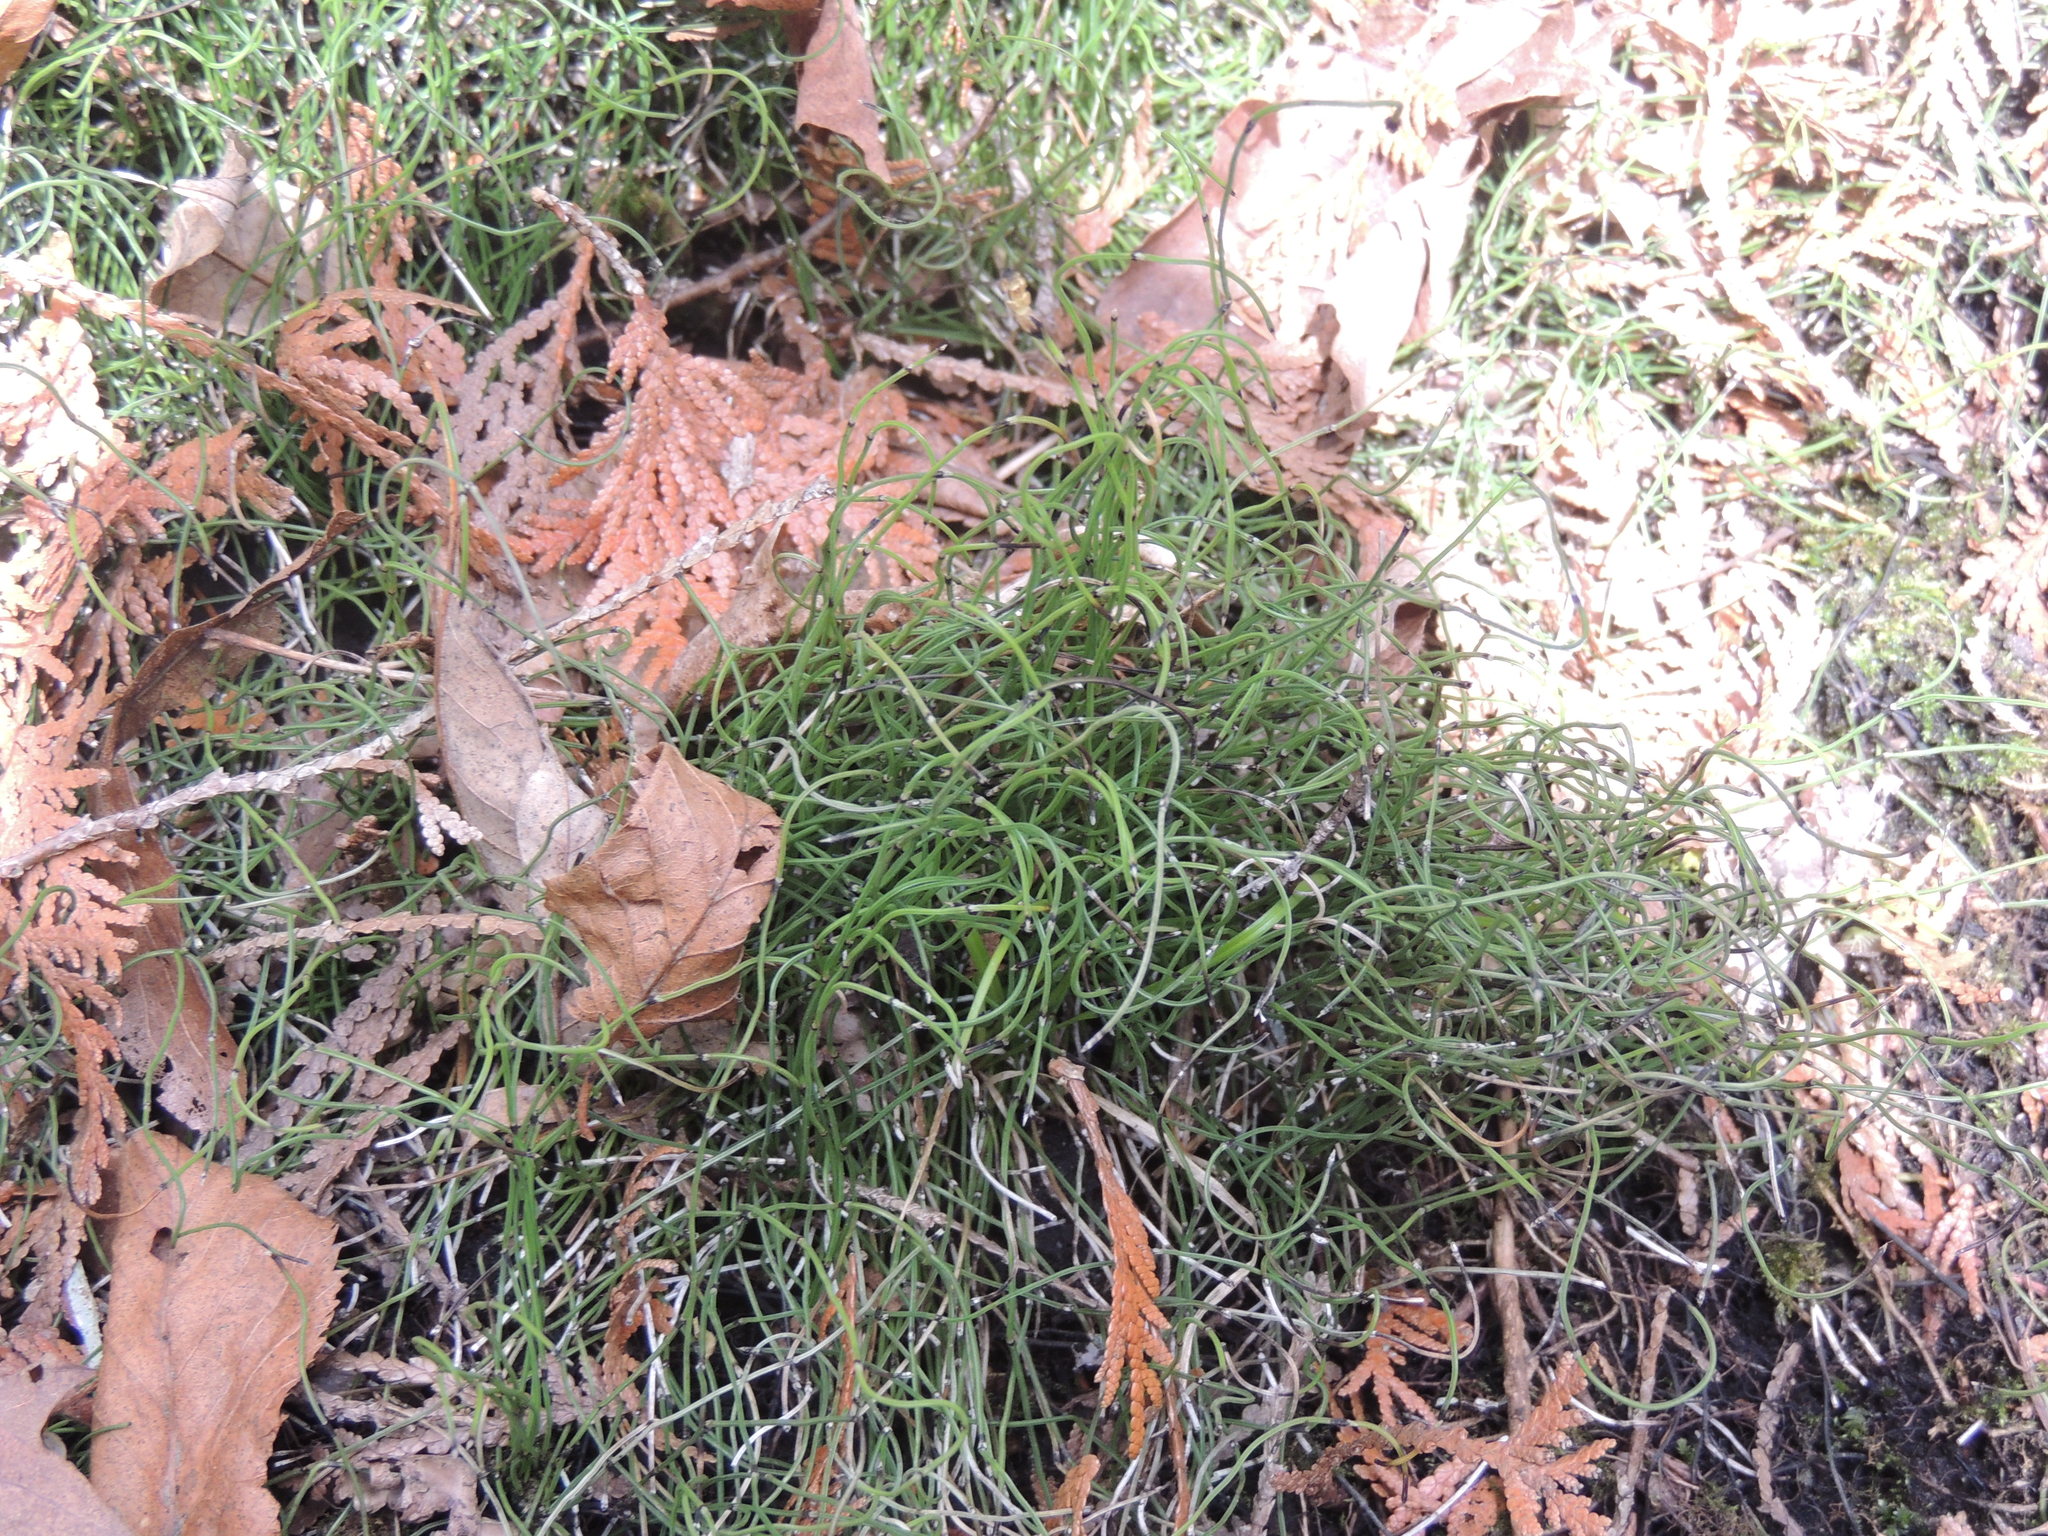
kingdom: Plantae
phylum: Tracheophyta
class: Polypodiopsida
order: Equisetales
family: Equisetaceae
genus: Equisetum
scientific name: Equisetum scirpoides
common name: Delicate horsetail
